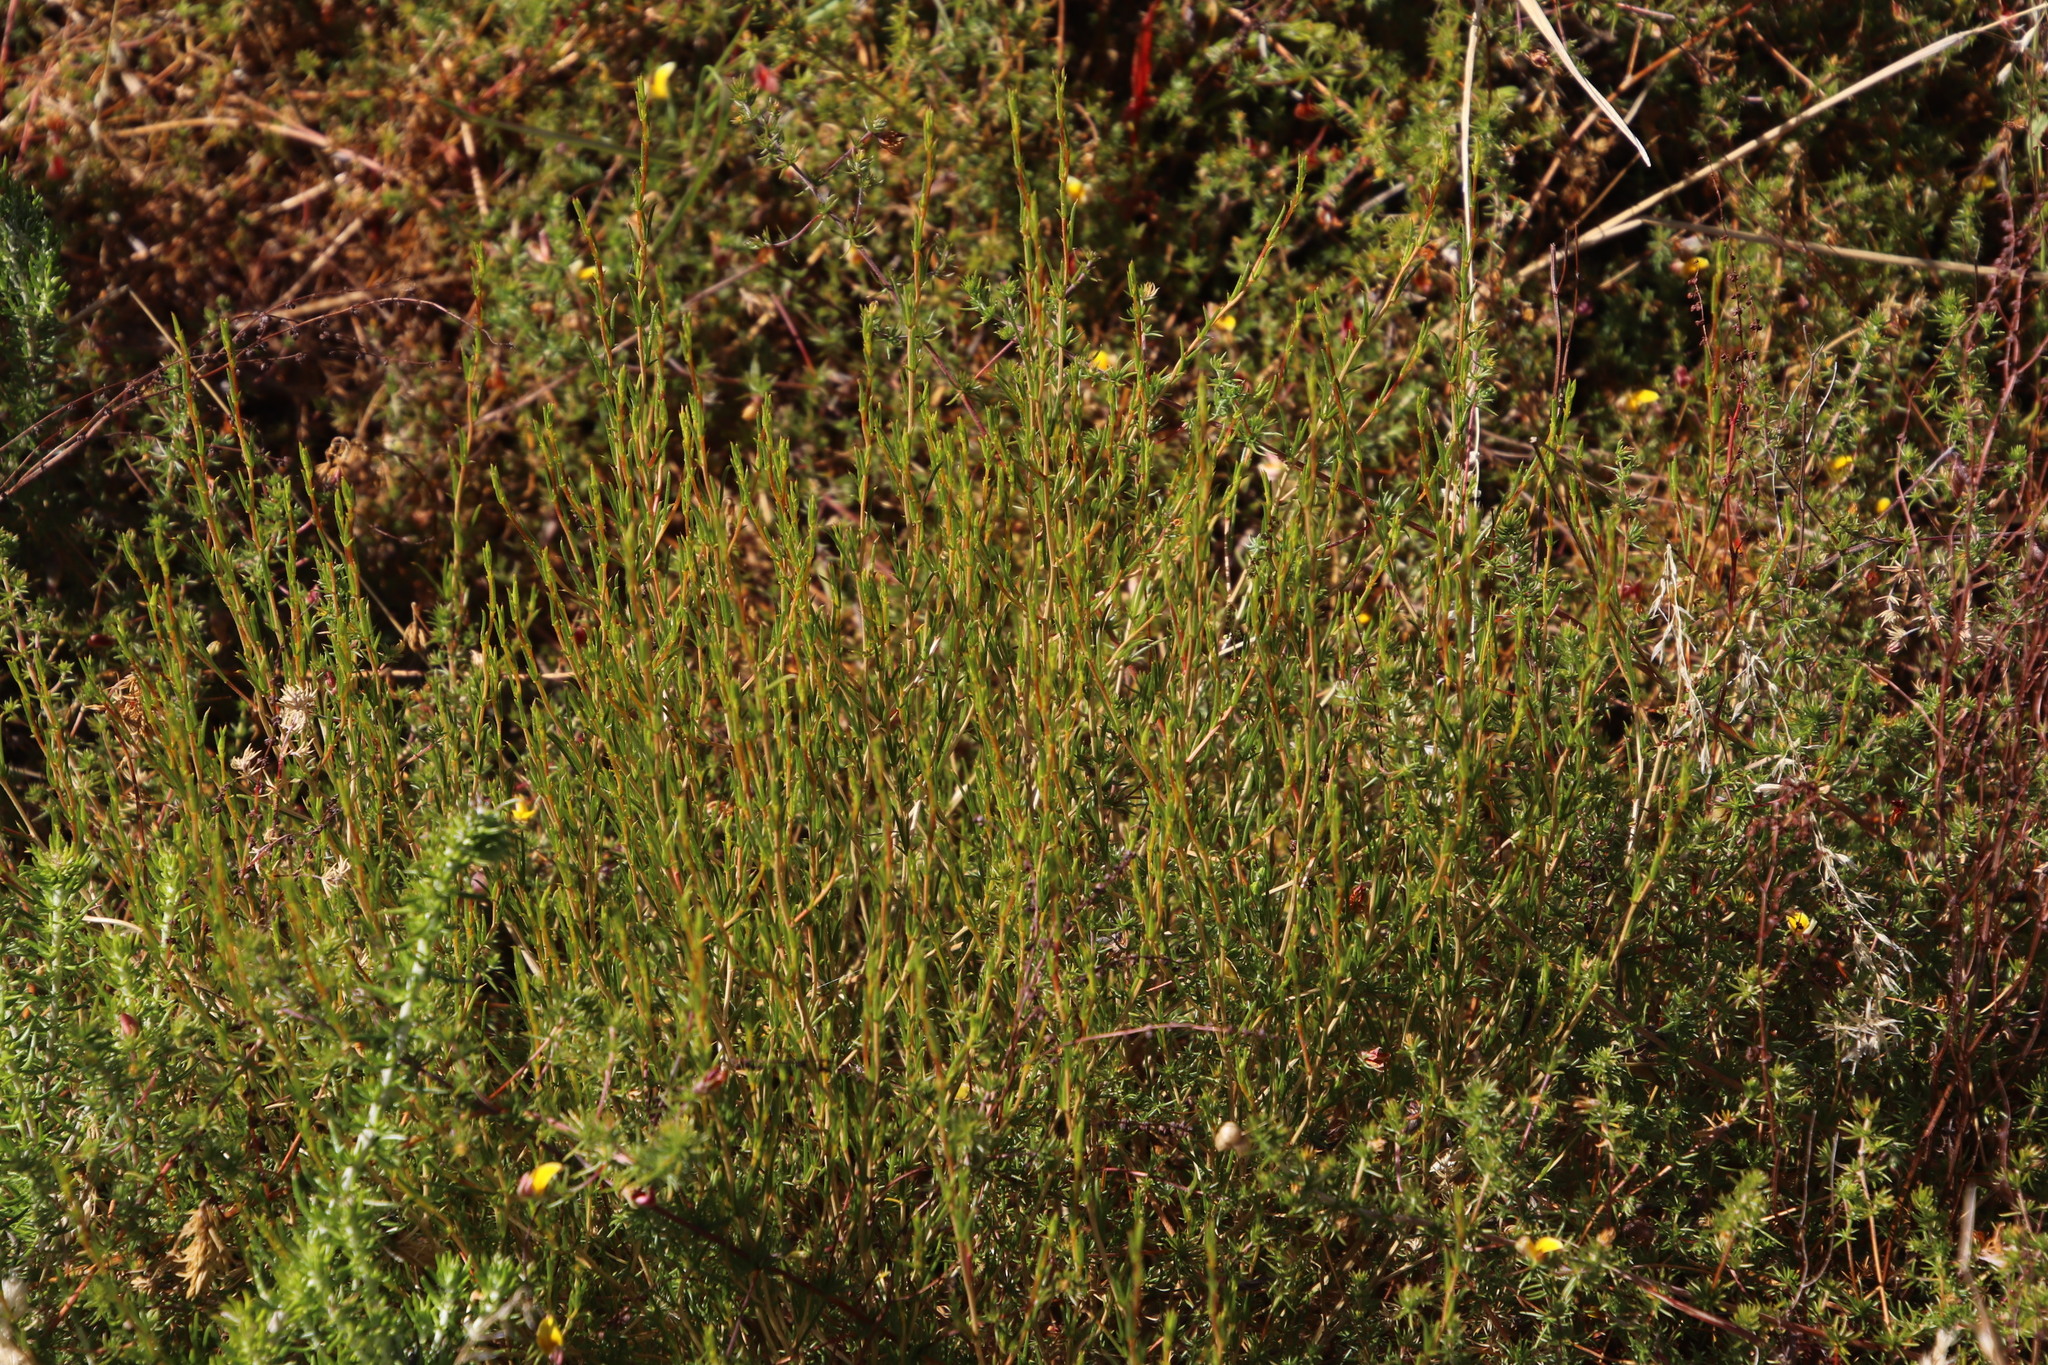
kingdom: Plantae
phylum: Tracheophyta
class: Magnoliopsida
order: Fabales
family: Fabaceae
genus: Aspalathus
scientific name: Aspalathus abietina
